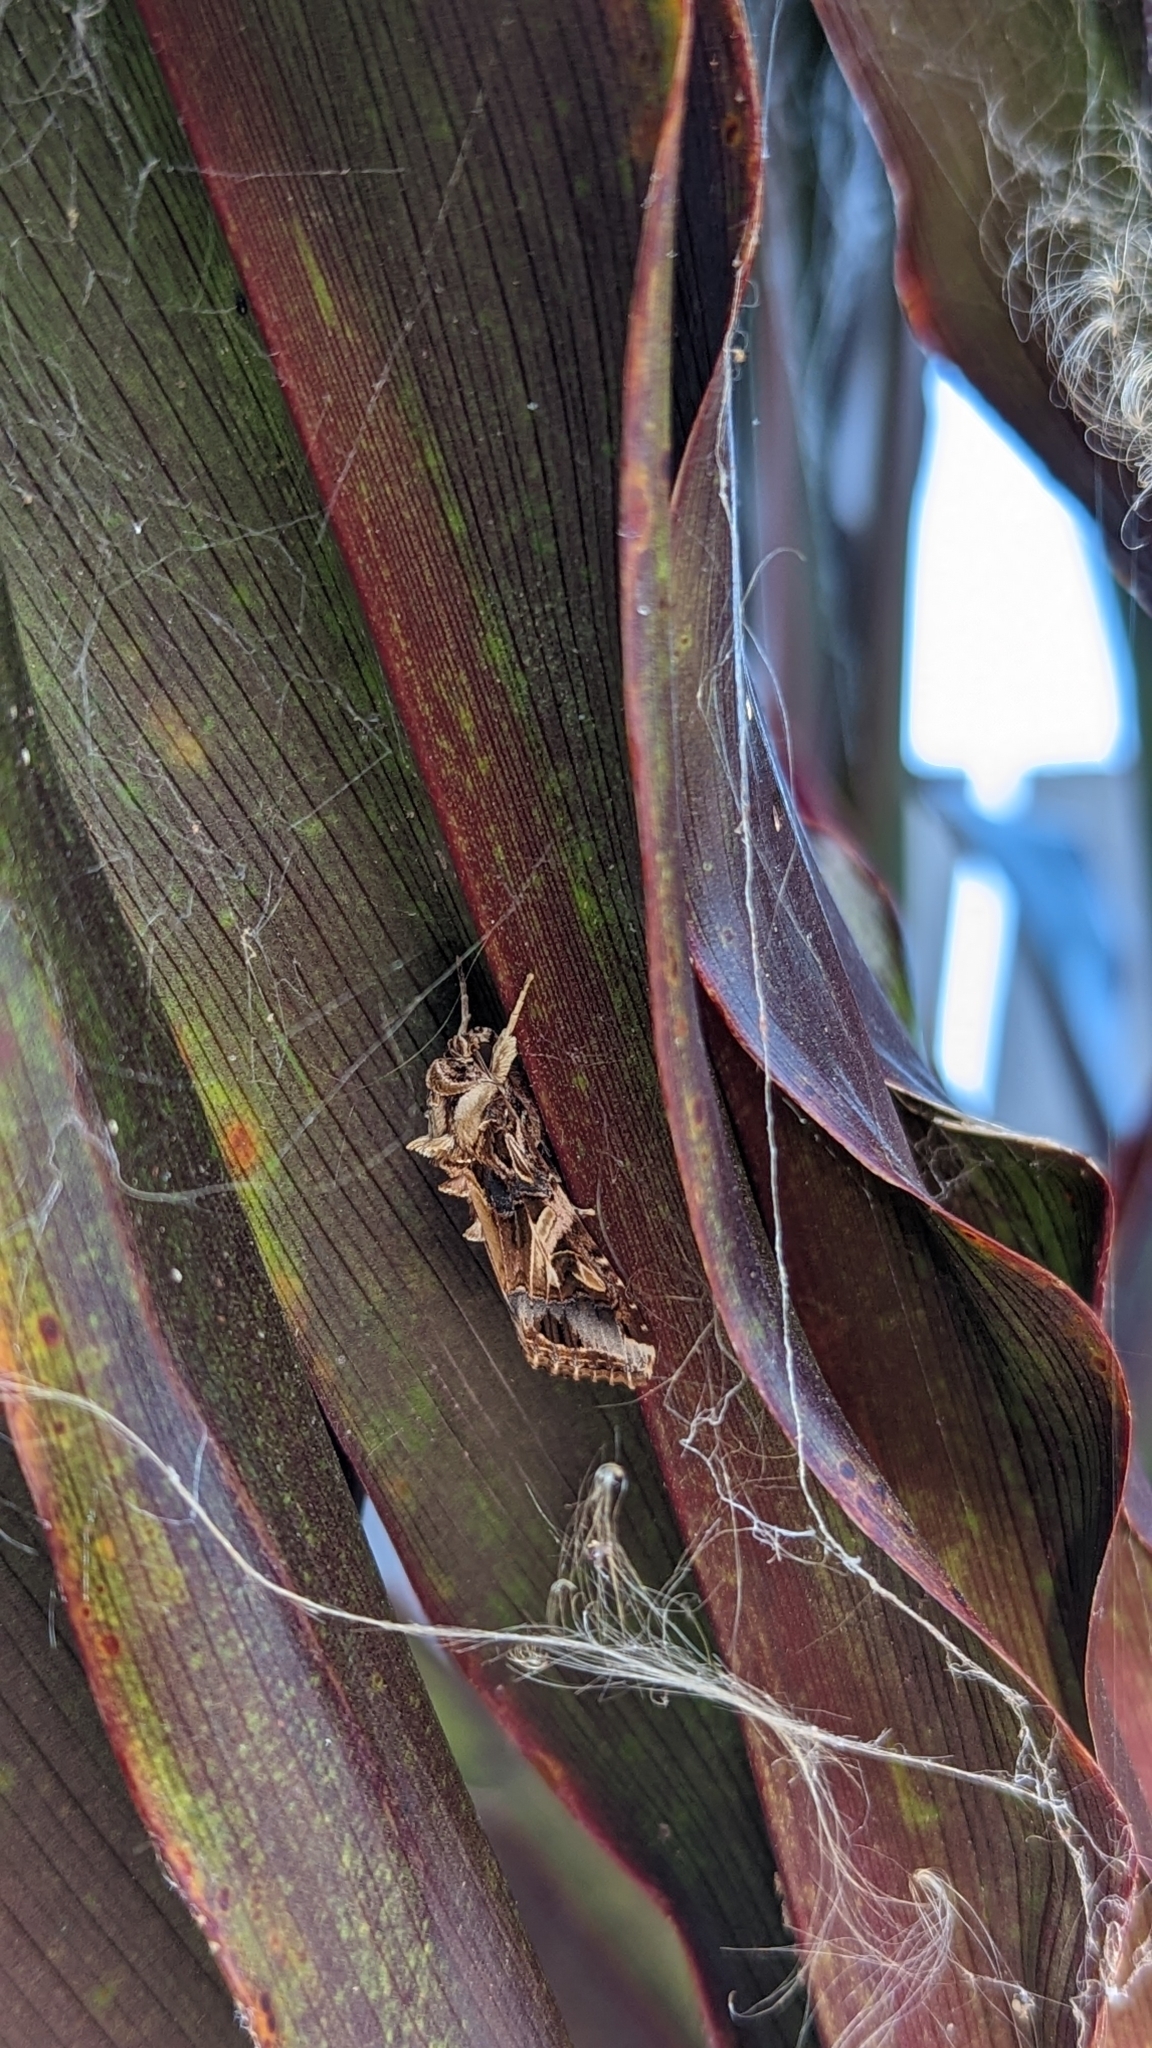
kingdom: Animalia
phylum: Arthropoda
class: Insecta
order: Lepidoptera
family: Noctuidae
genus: Spodoptera
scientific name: Spodoptera litura
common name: Asian cotton leafworm
